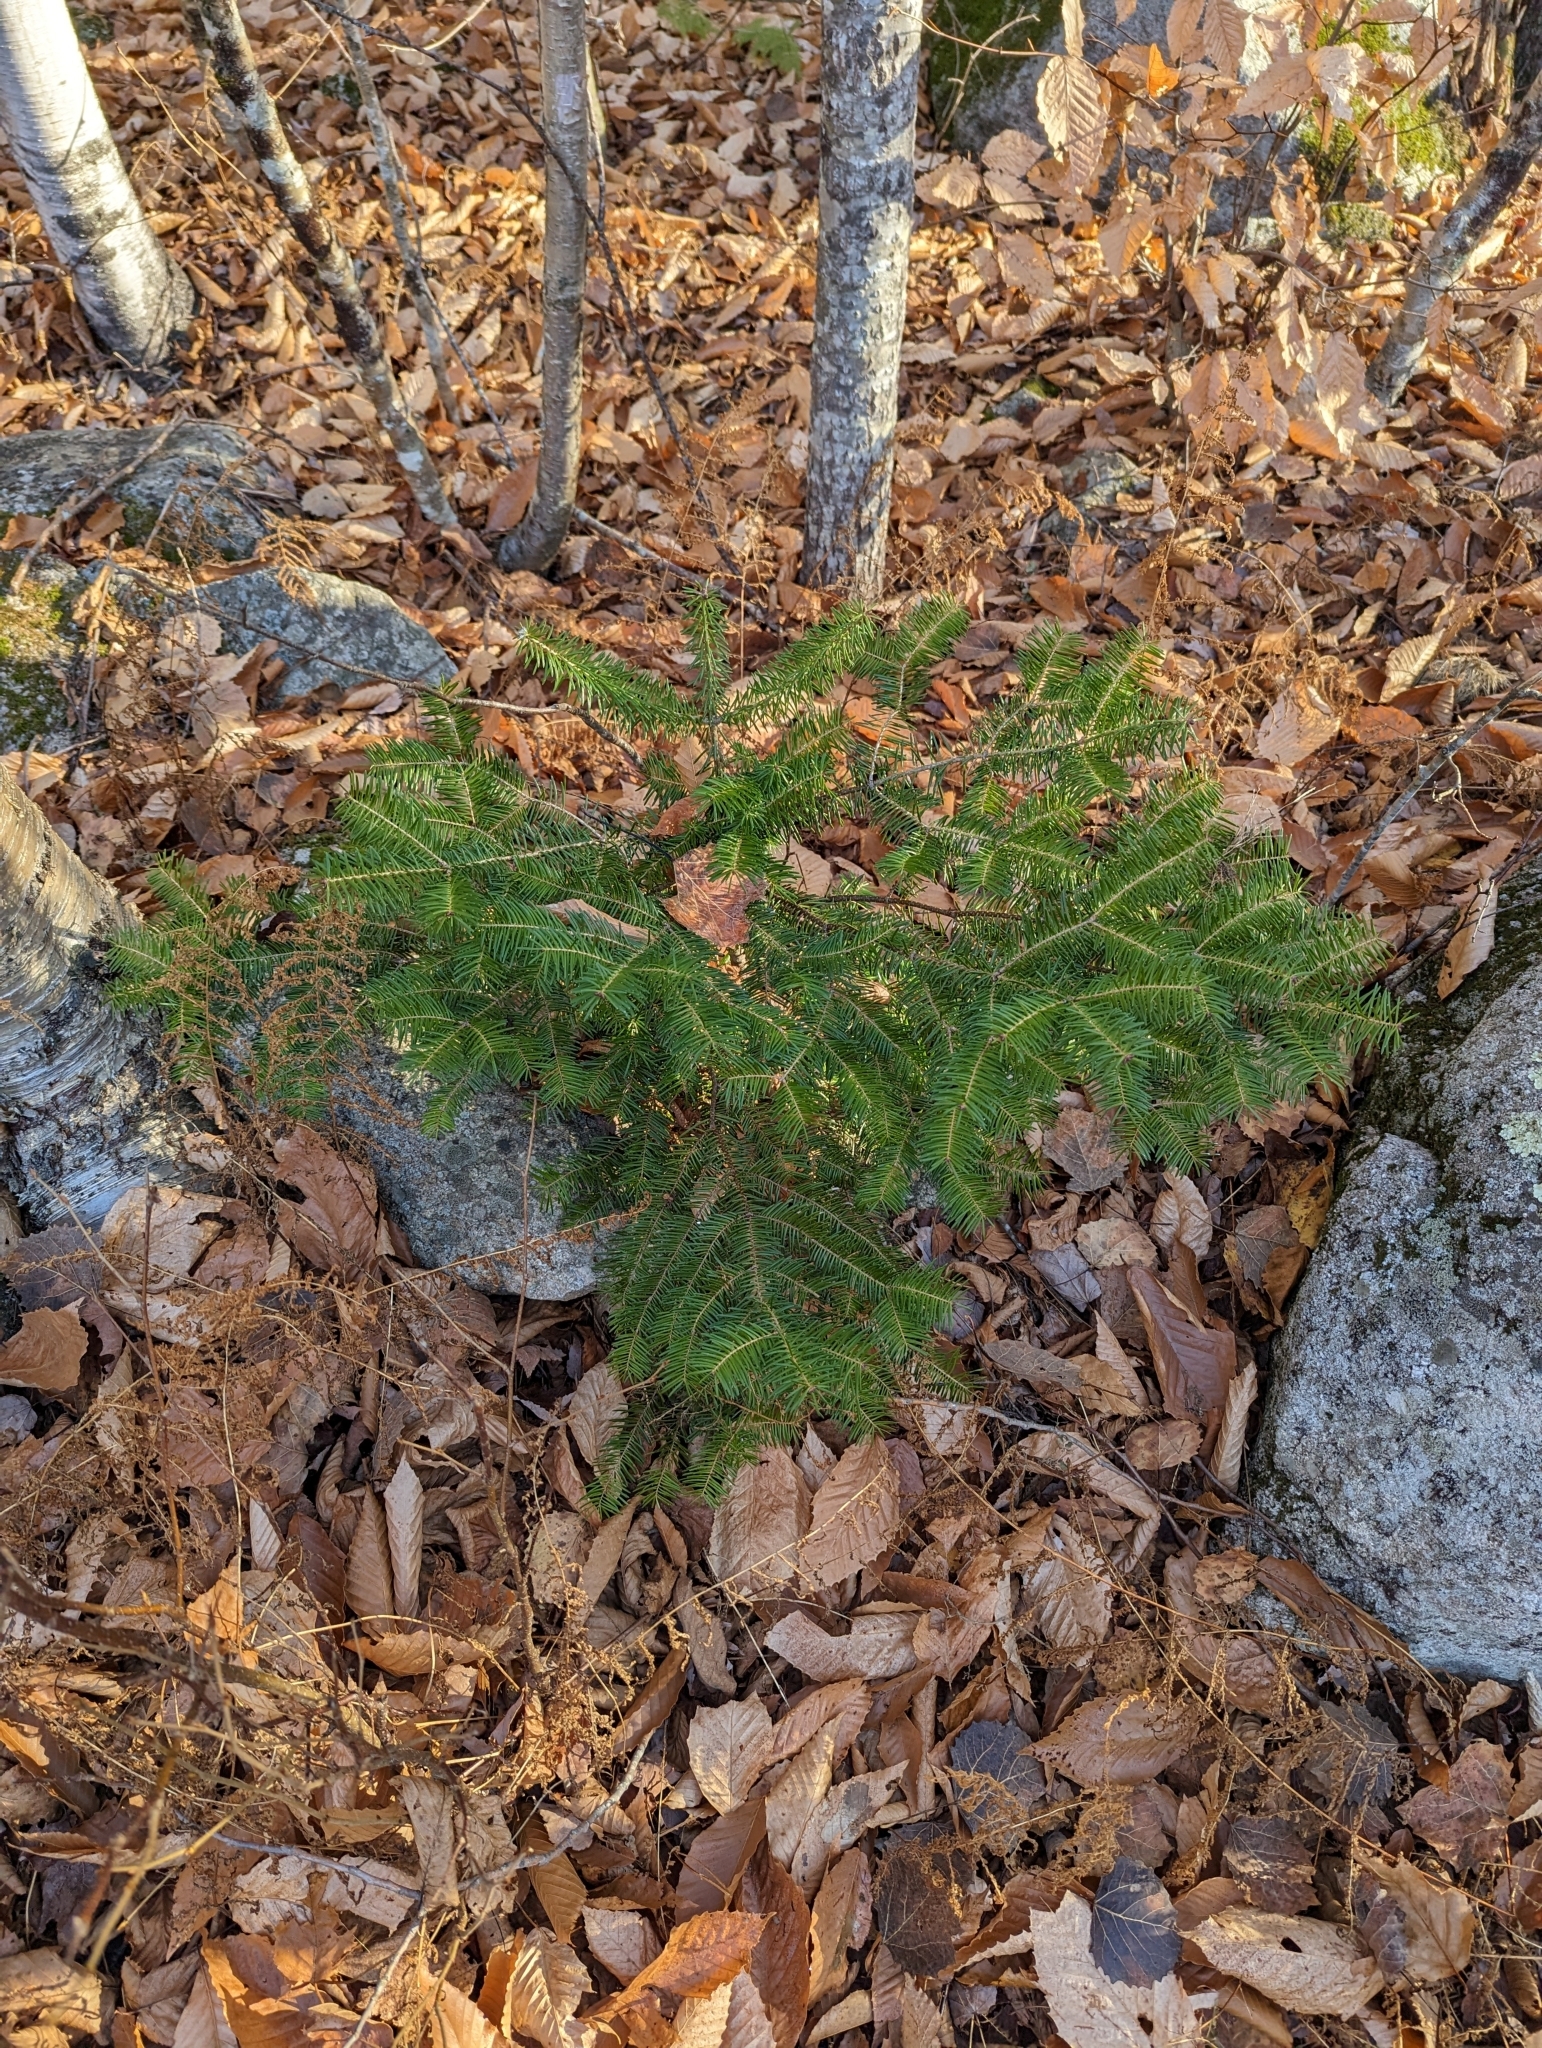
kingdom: Plantae
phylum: Tracheophyta
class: Pinopsida
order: Pinales
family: Pinaceae
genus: Abies
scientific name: Abies balsamea
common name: Balsam fir
